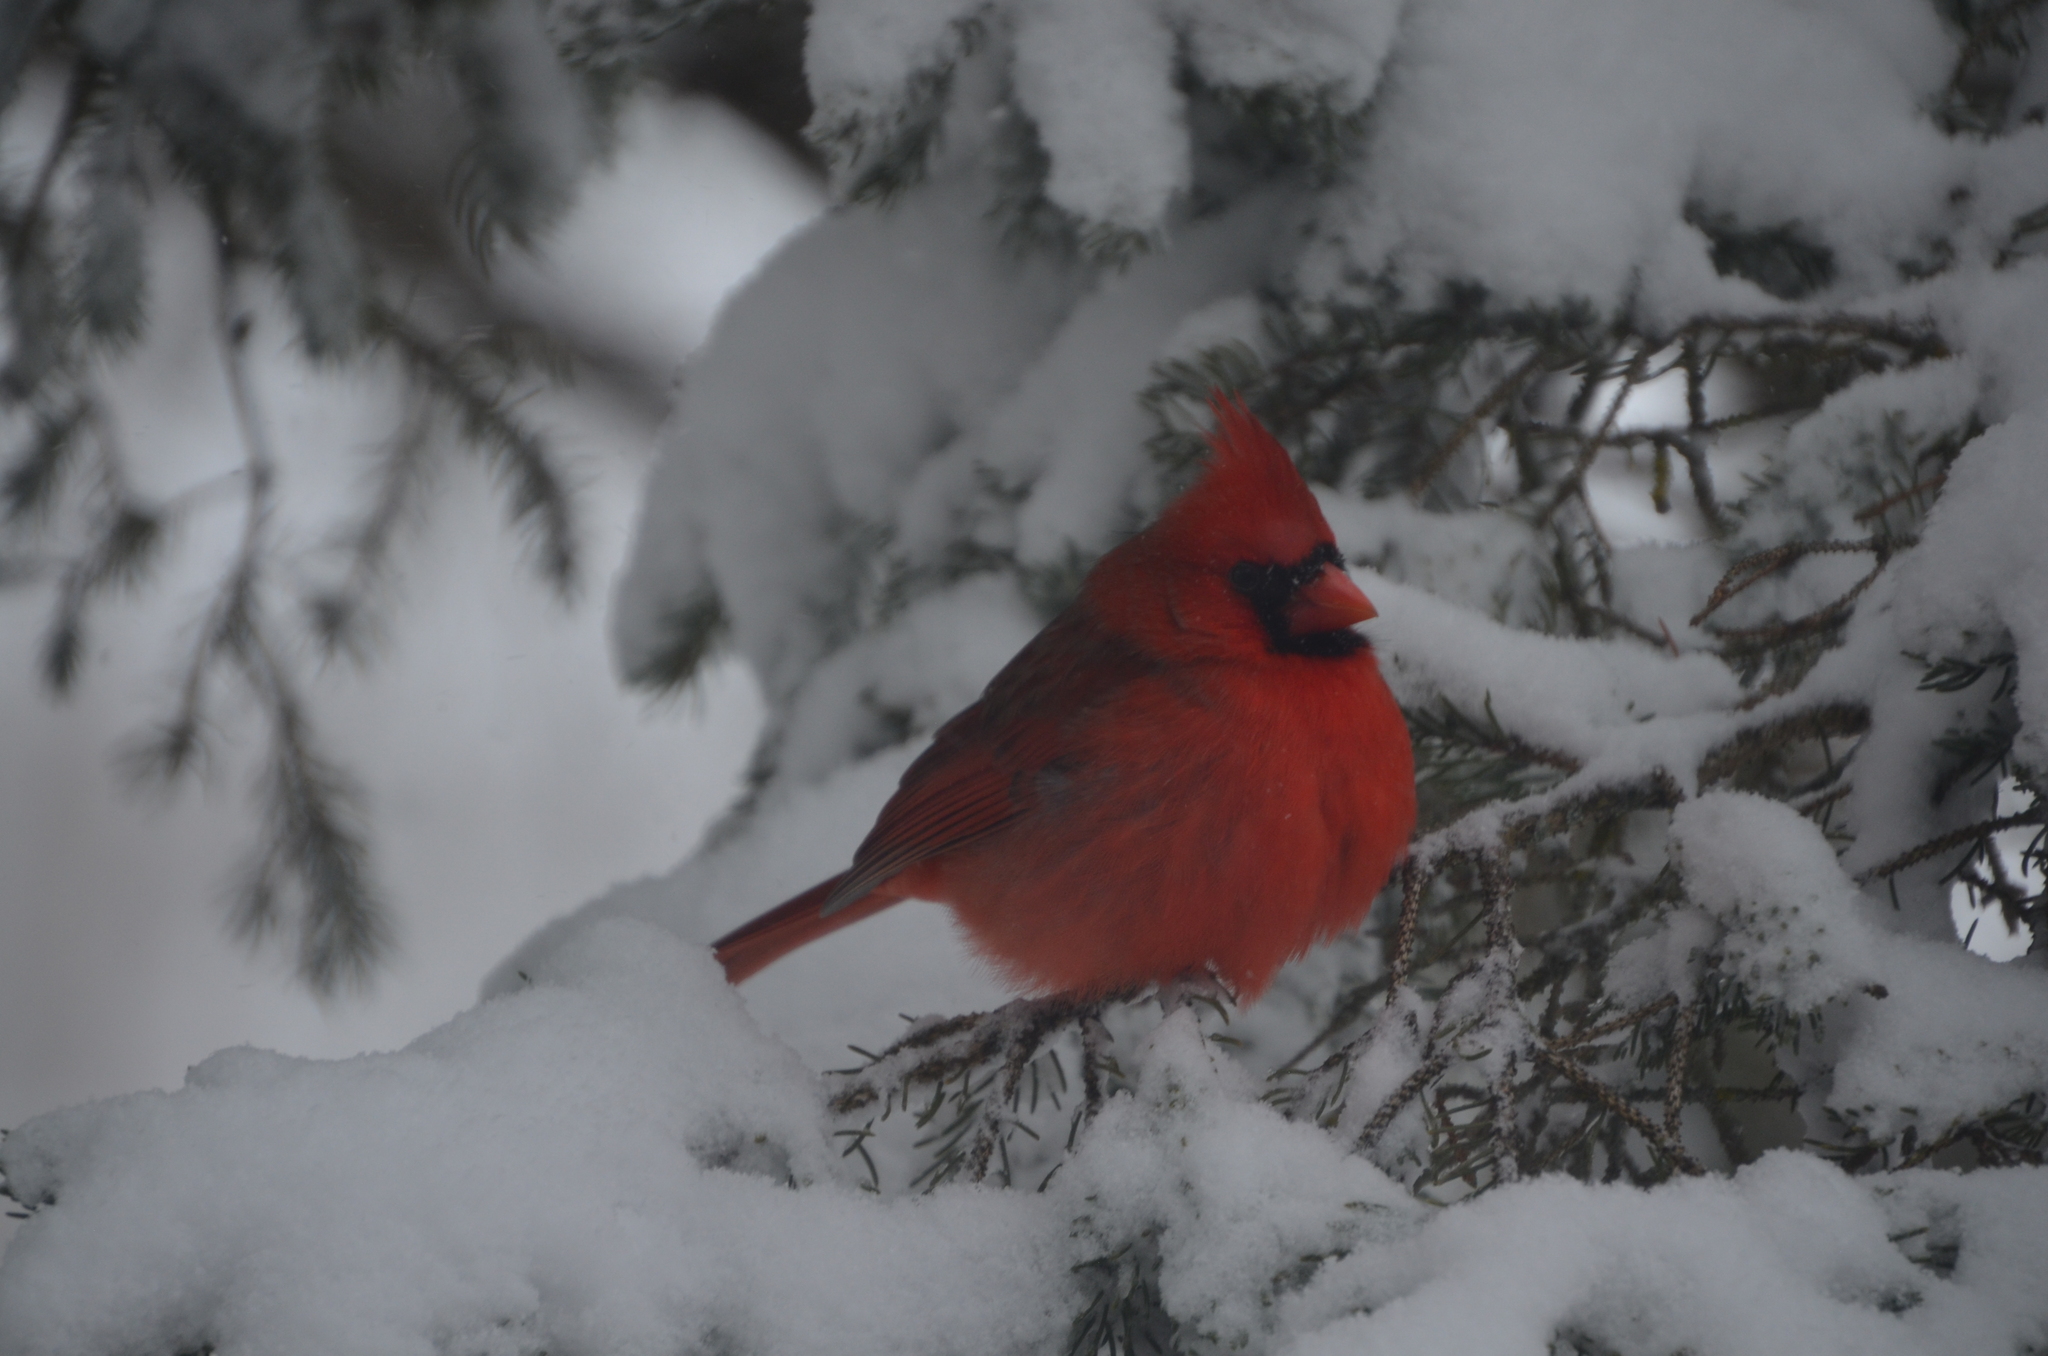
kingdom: Animalia
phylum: Chordata
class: Aves
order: Passeriformes
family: Cardinalidae
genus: Cardinalis
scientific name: Cardinalis cardinalis
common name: Northern cardinal
